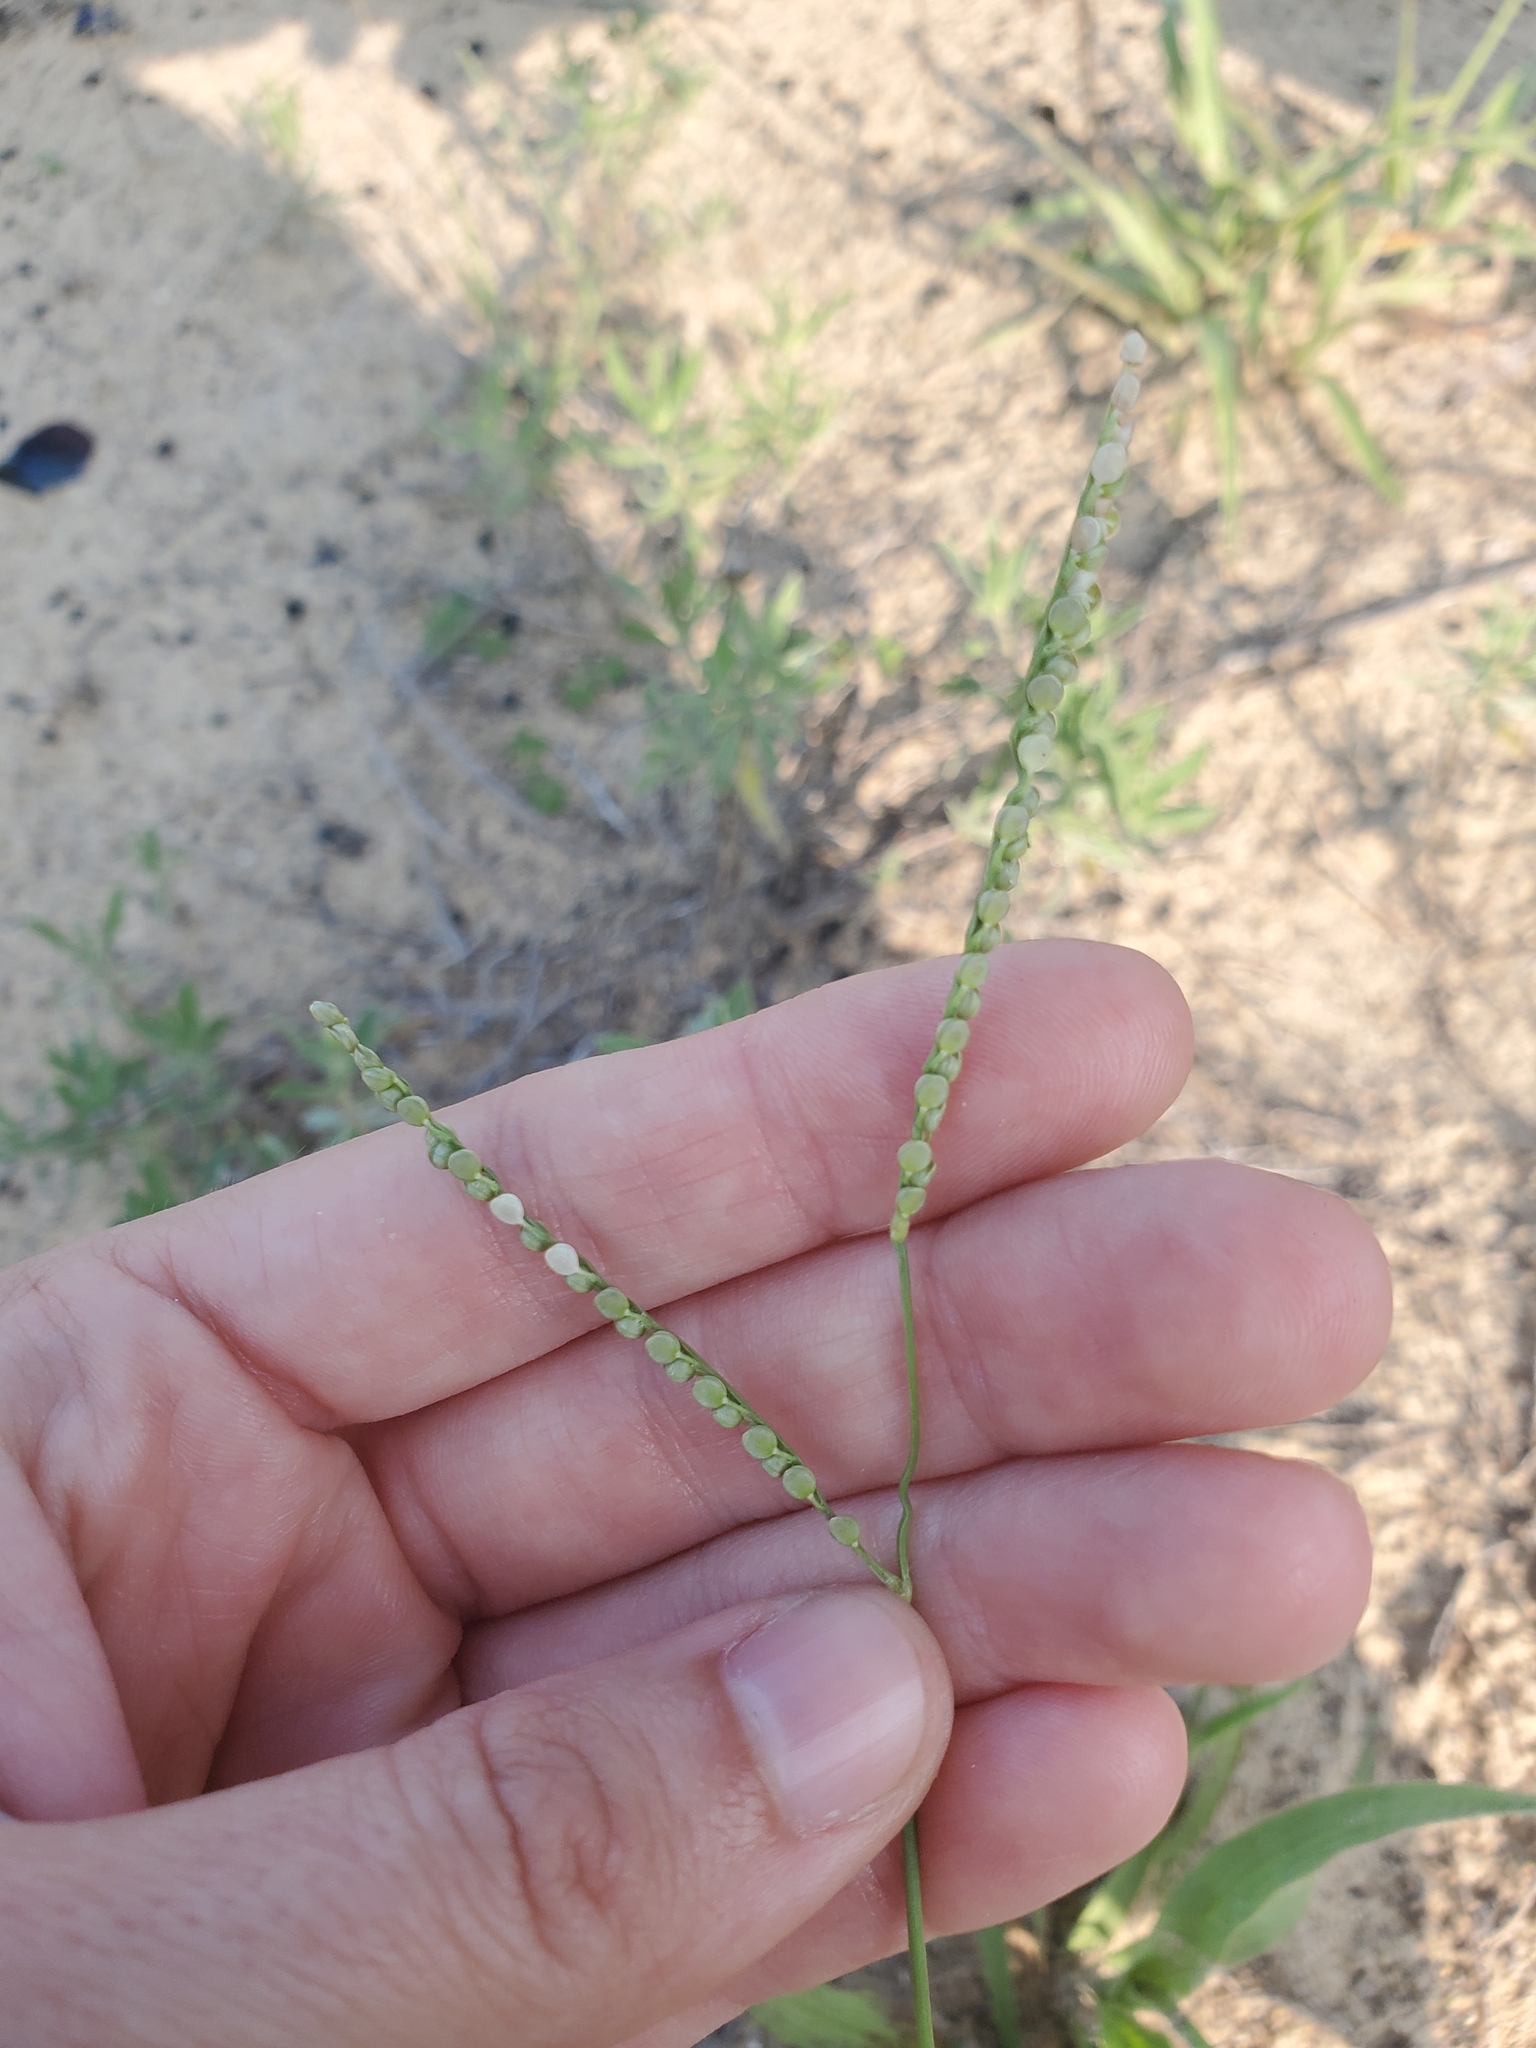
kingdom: Plantae
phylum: Tracheophyta
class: Liliopsida
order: Poales
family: Poaceae
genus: Paspalum
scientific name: Paspalum setaceum
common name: Slender paspalum
